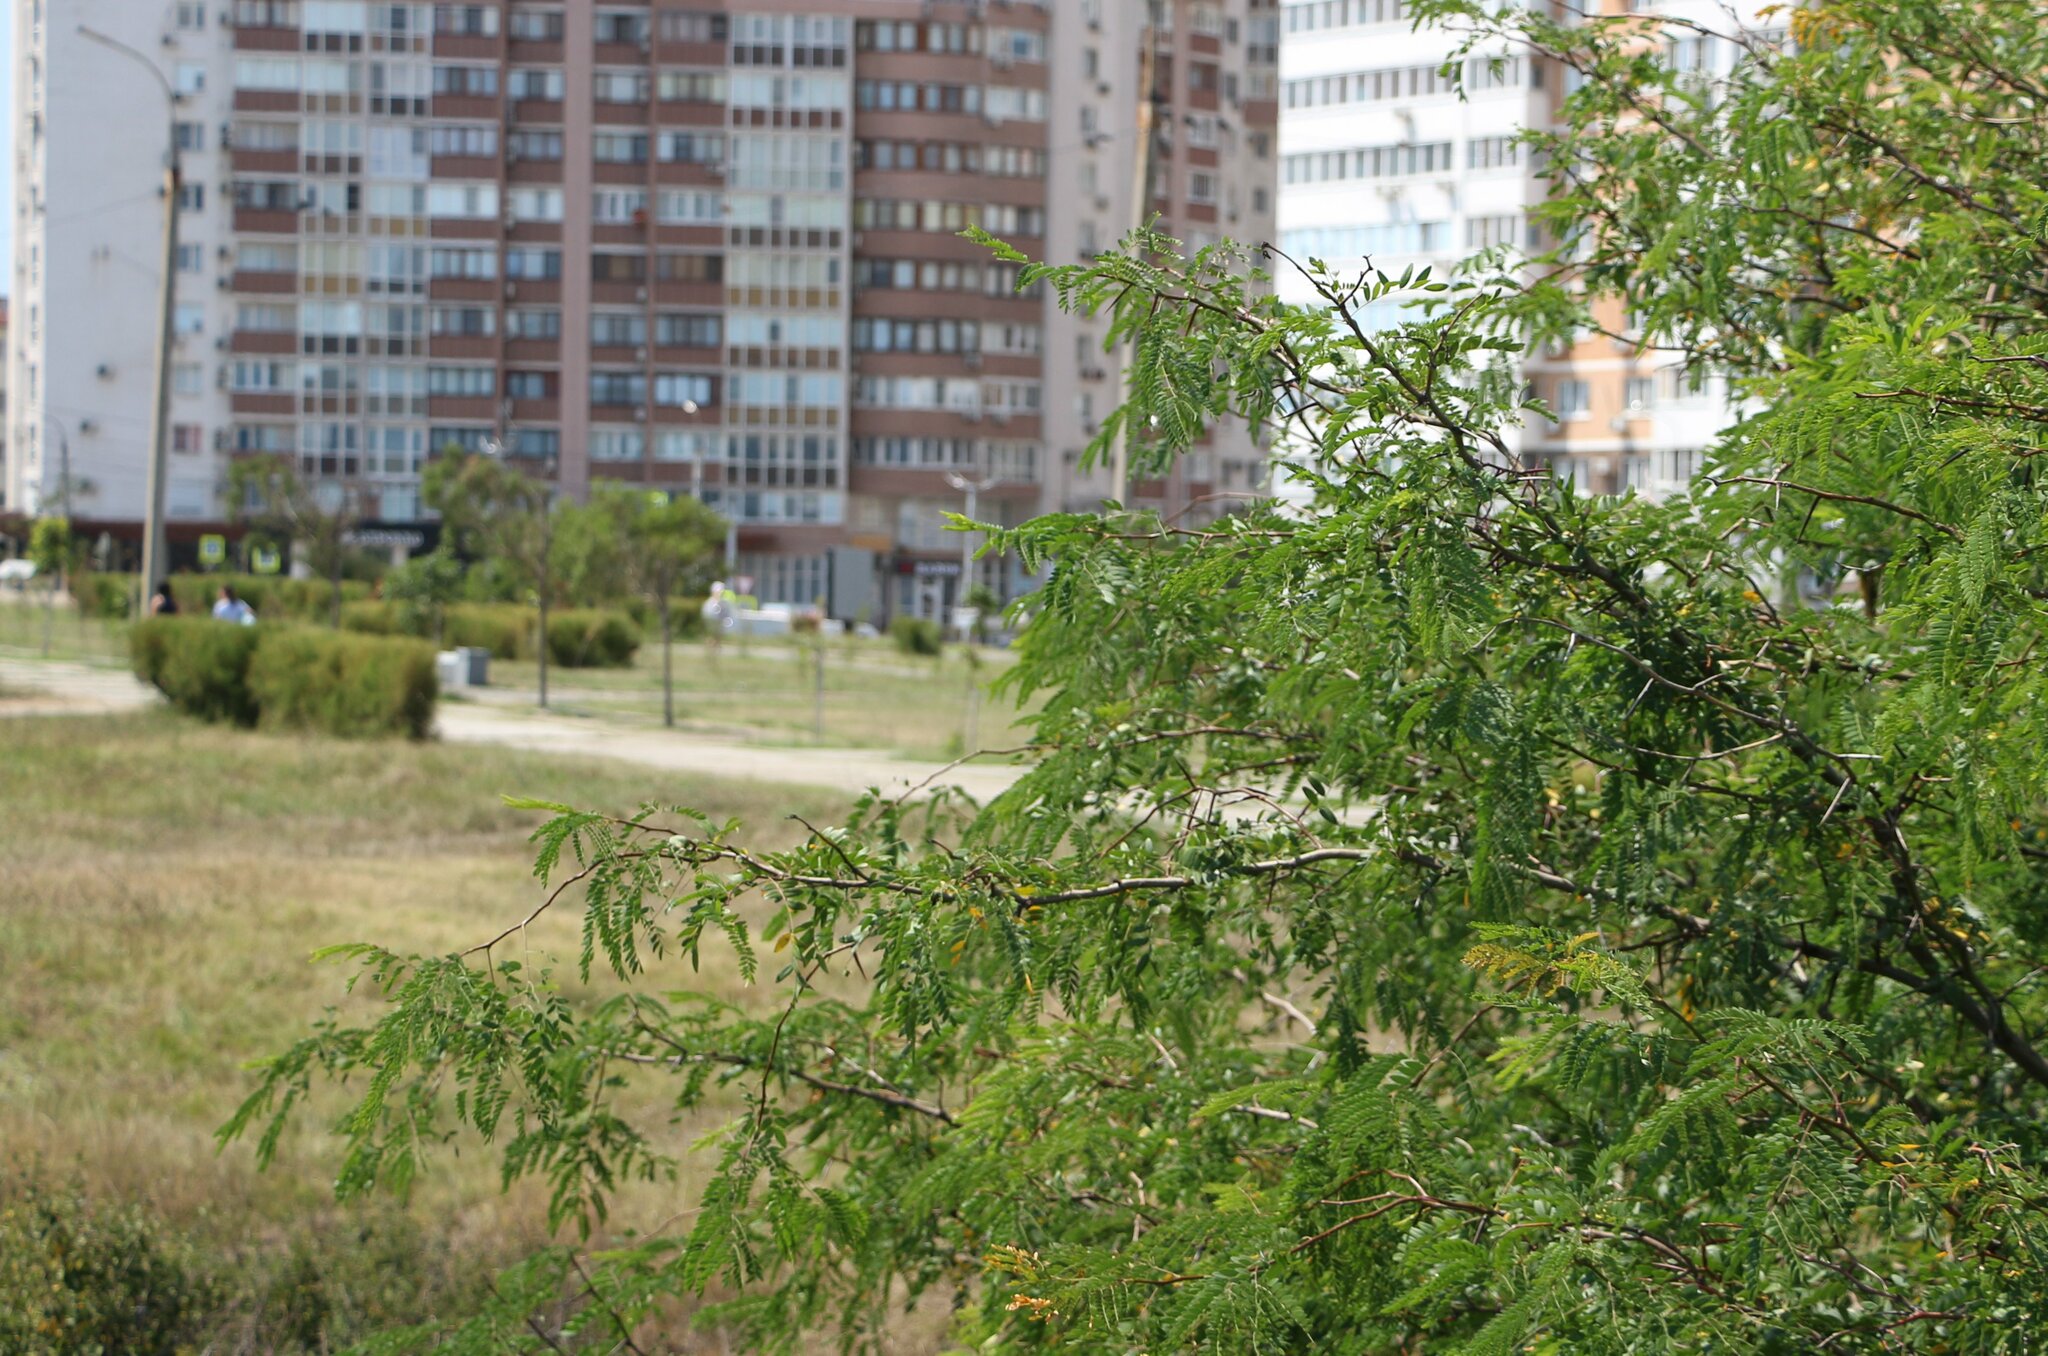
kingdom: Plantae
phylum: Tracheophyta
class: Magnoliopsida
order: Fabales
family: Fabaceae
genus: Gleditsia
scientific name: Gleditsia triacanthos
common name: Common honeylocust
